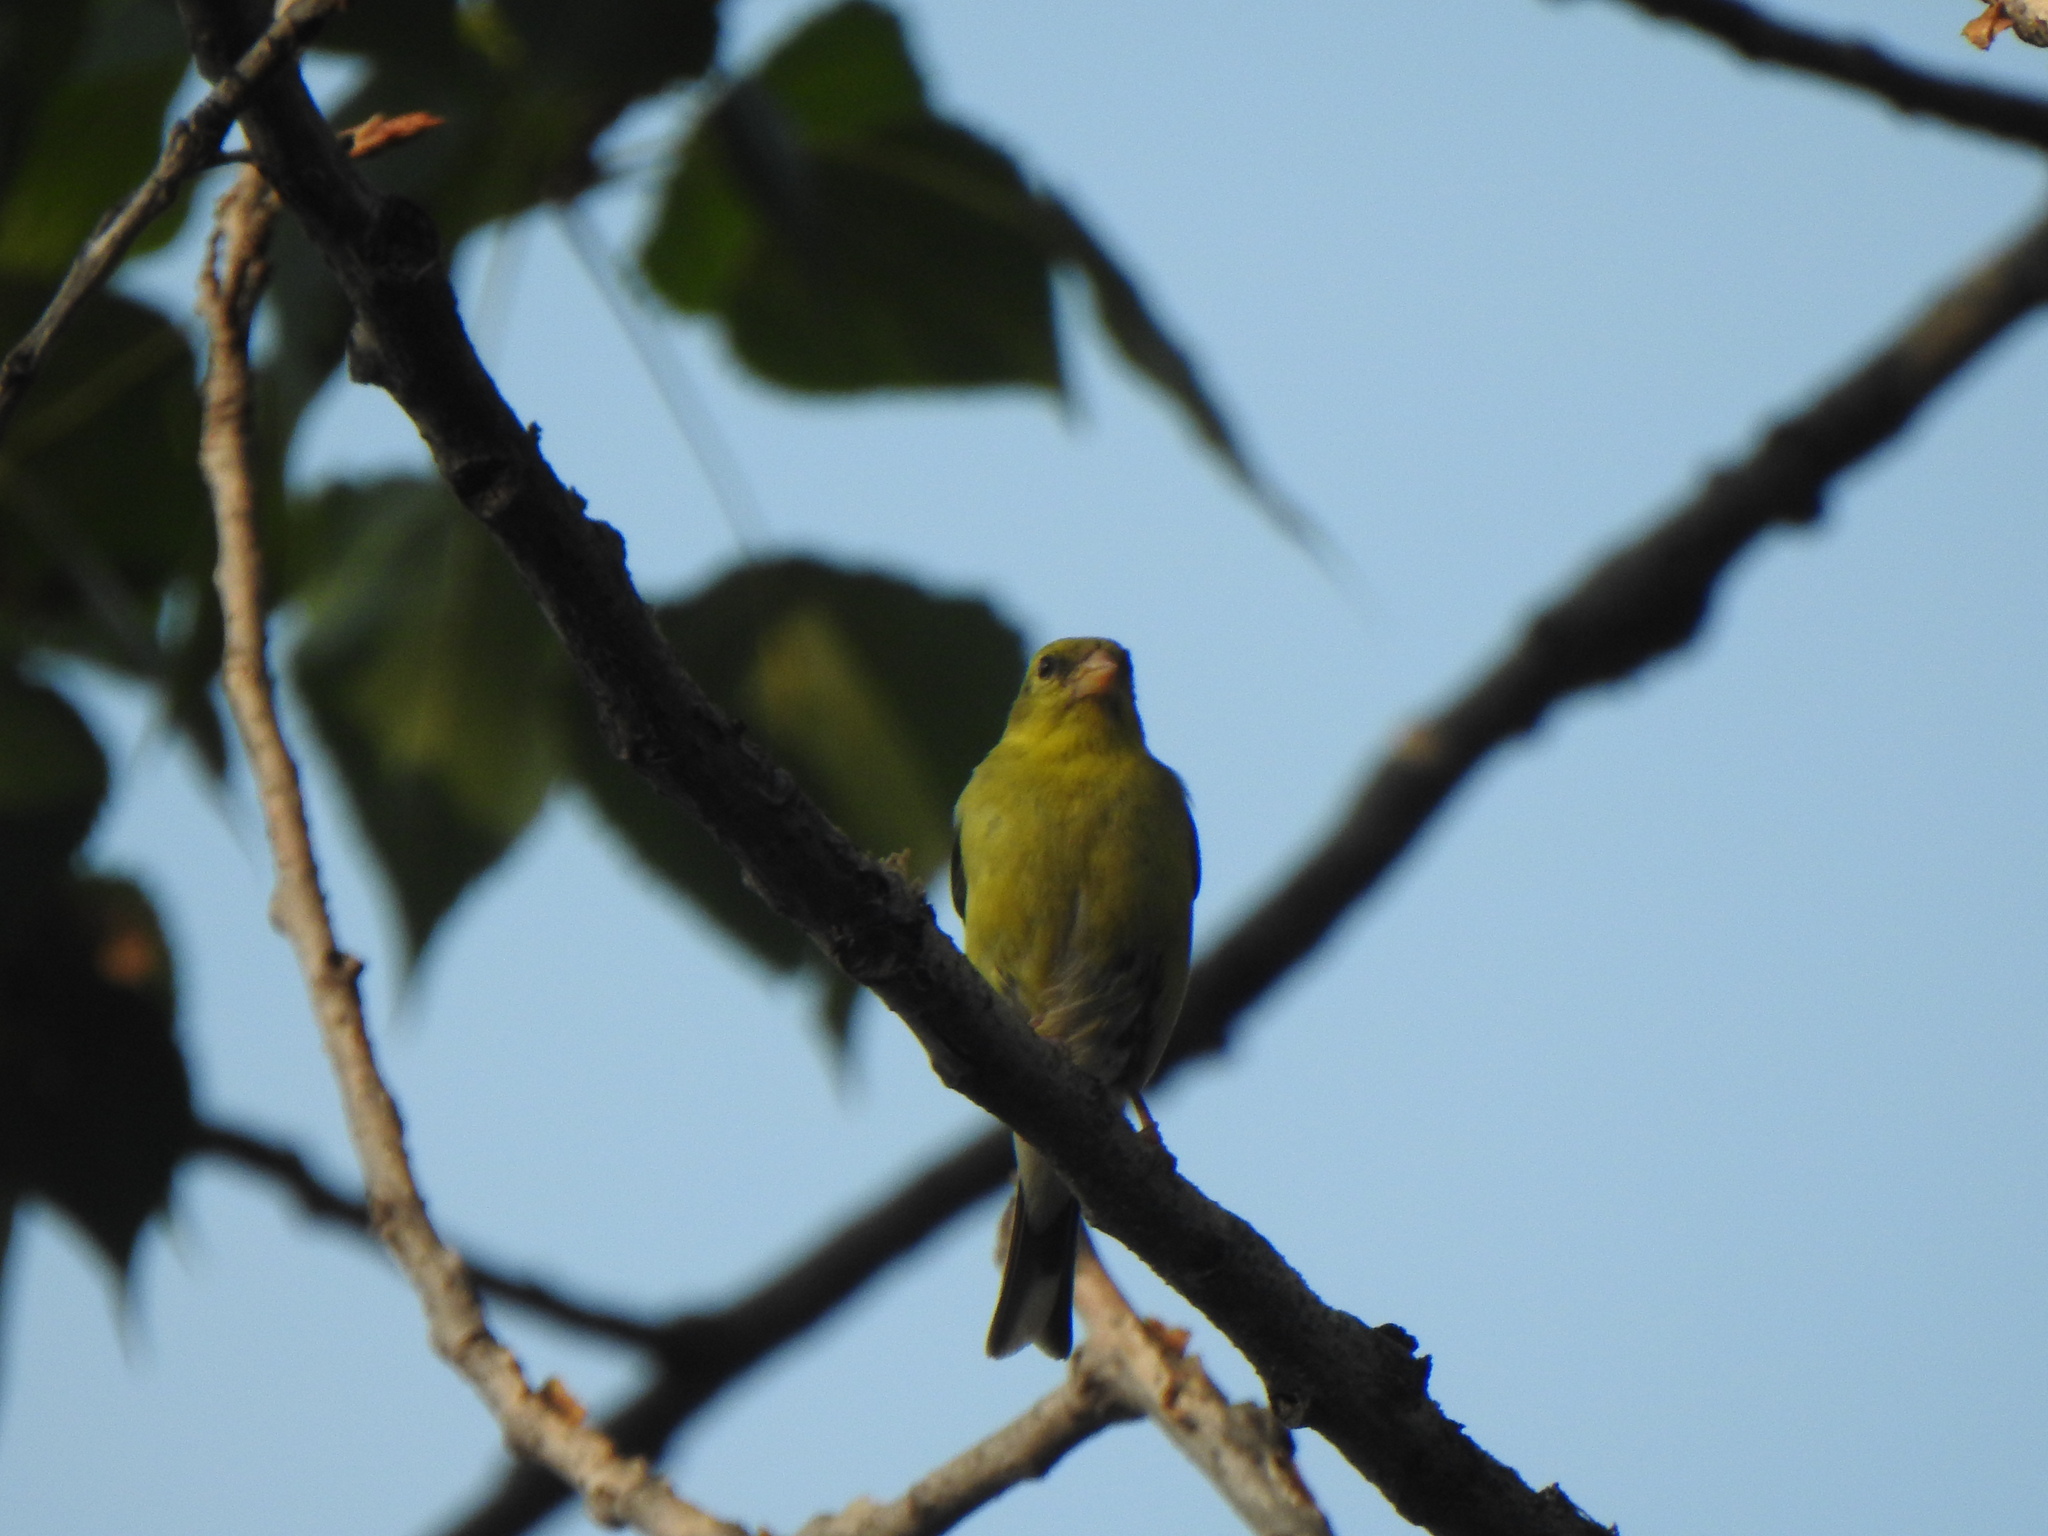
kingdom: Animalia
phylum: Chordata
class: Aves
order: Passeriformes
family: Fringillidae
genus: Spinus
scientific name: Spinus tristis
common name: American goldfinch
